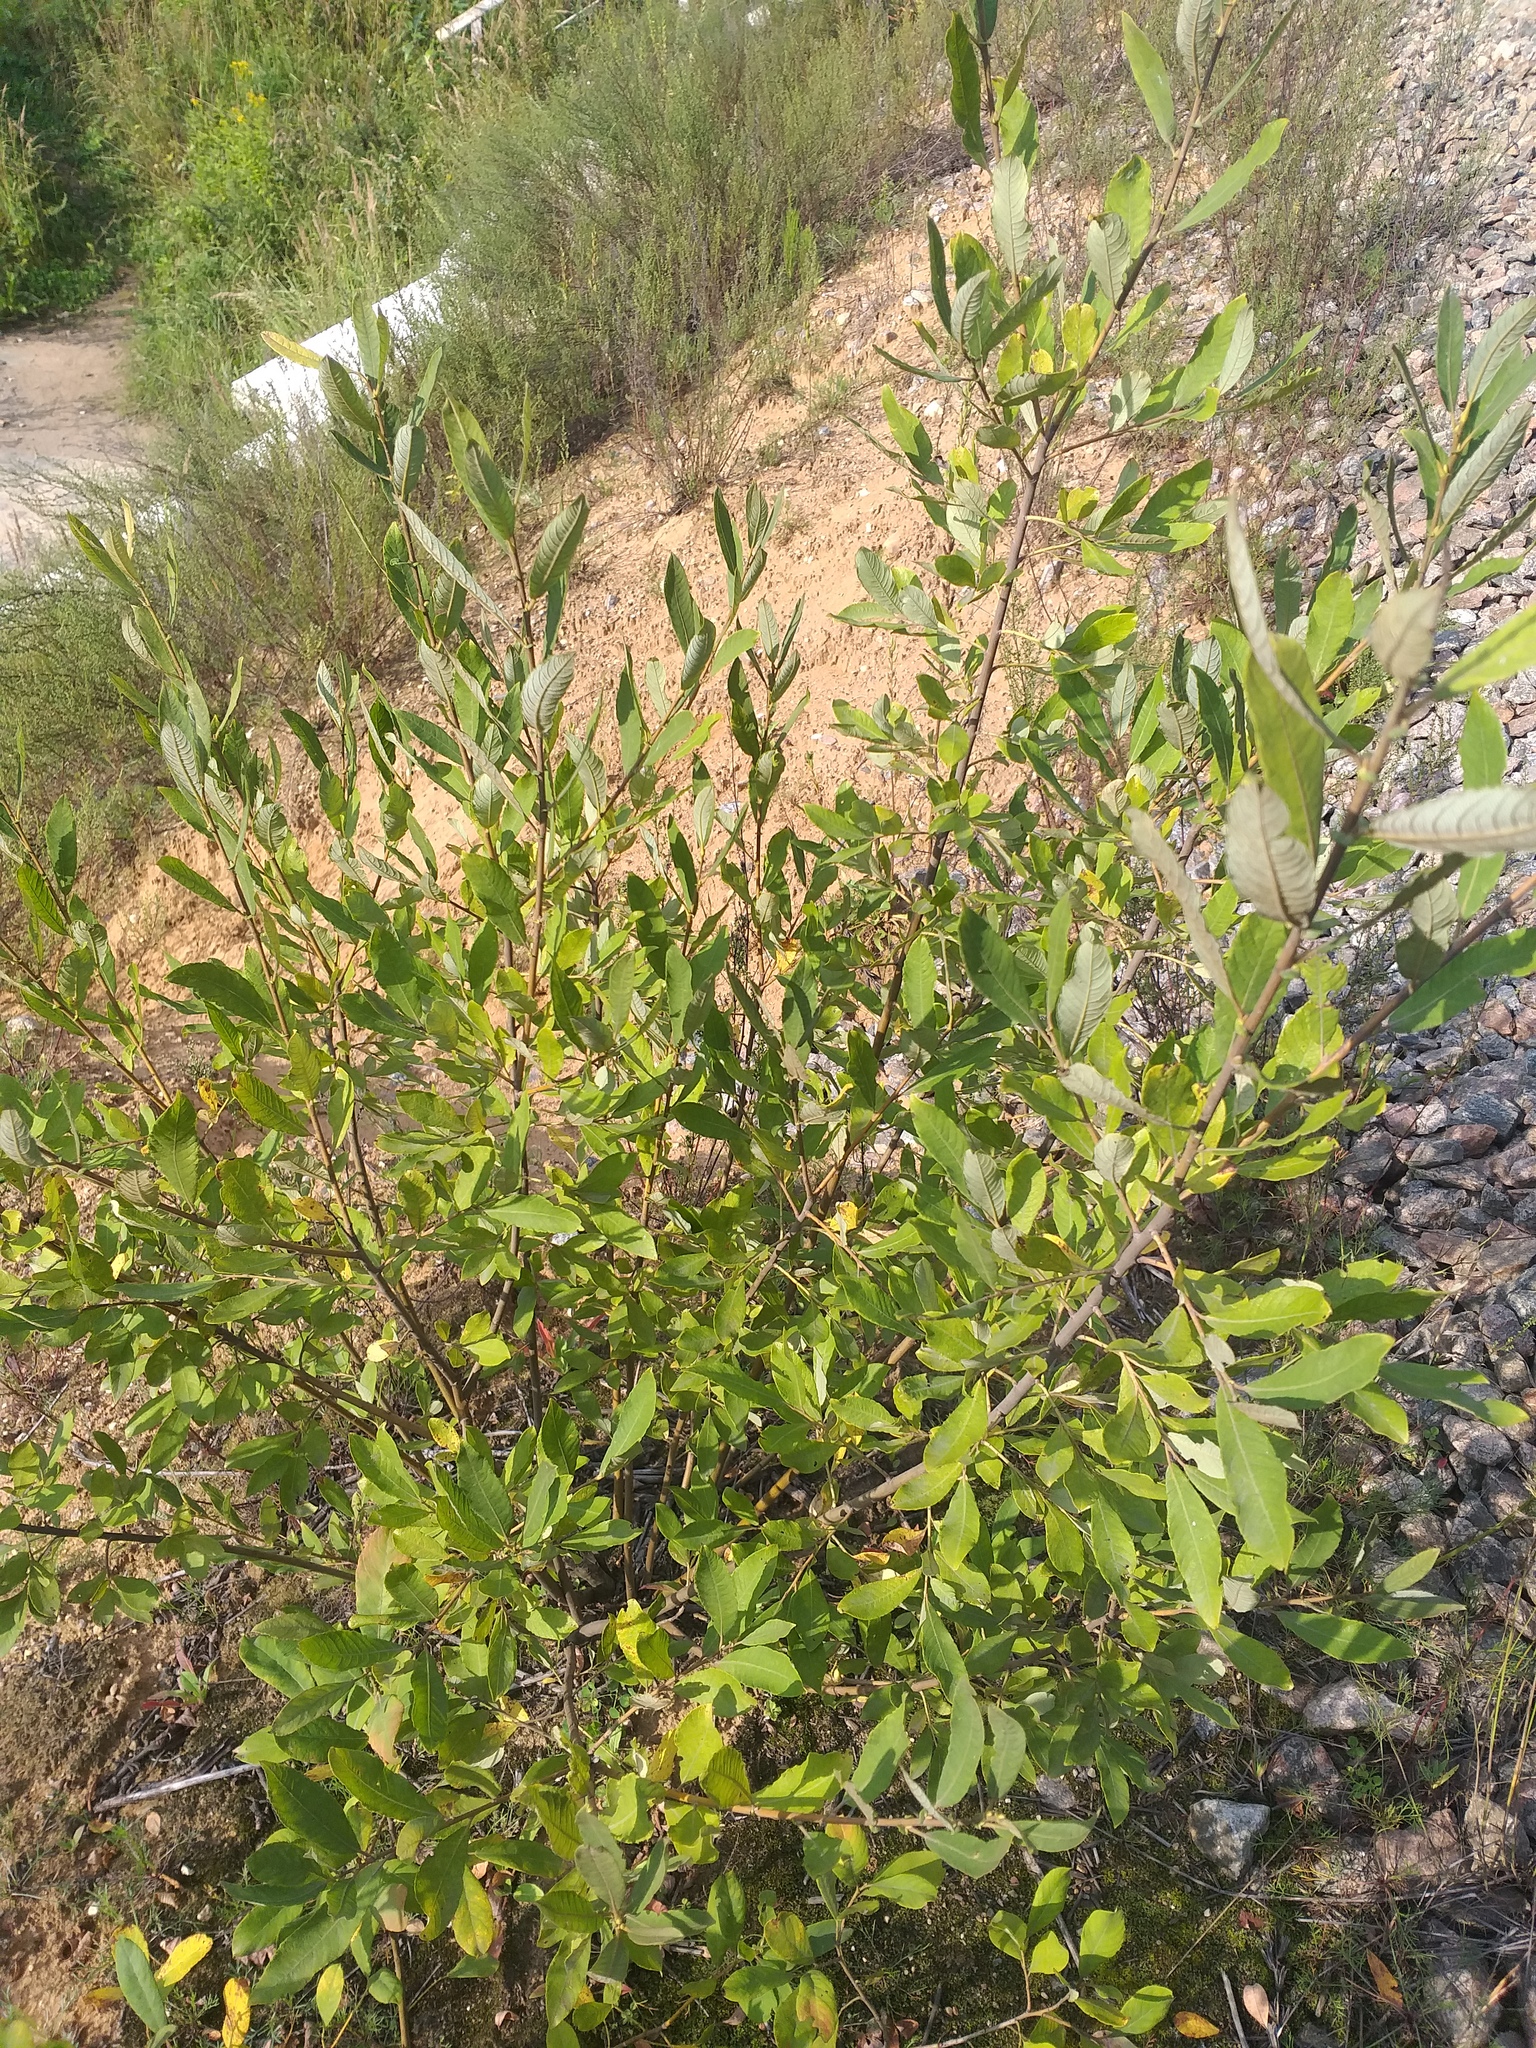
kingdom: Plantae
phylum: Tracheophyta
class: Magnoliopsida
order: Malpighiales
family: Salicaceae
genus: Salix
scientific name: Salix cinerea
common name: Common sallow
